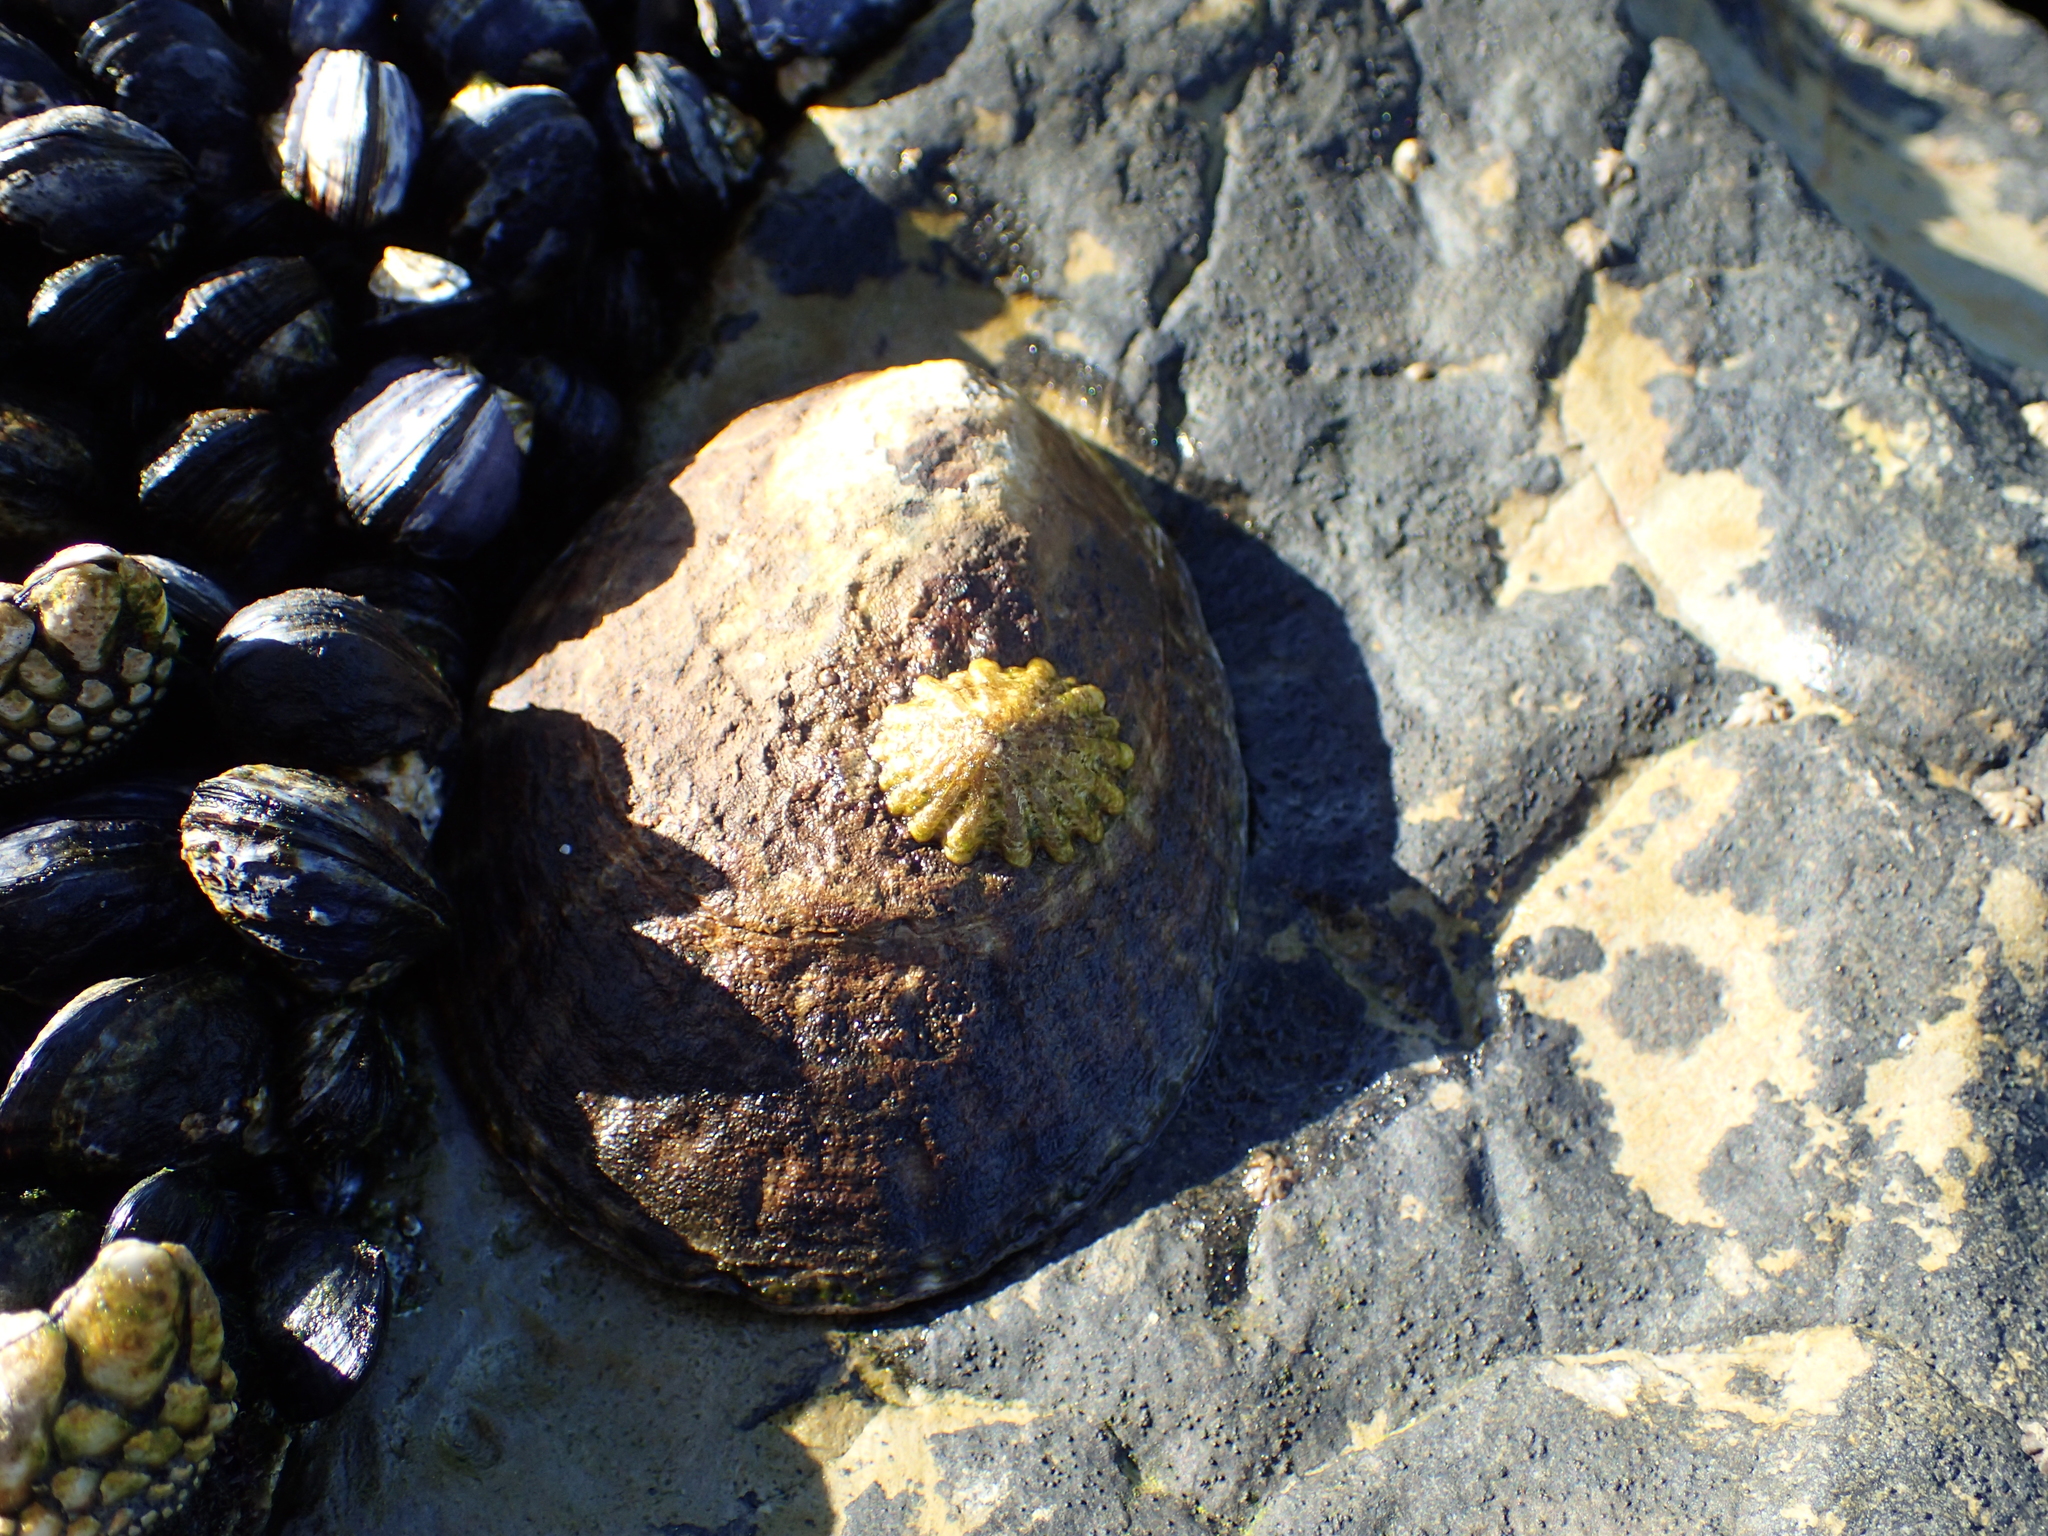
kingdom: Animalia
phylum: Mollusca
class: Gastropoda
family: Lottiidae
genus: Lottia
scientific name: Lottia gigantea
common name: Owl limpet
